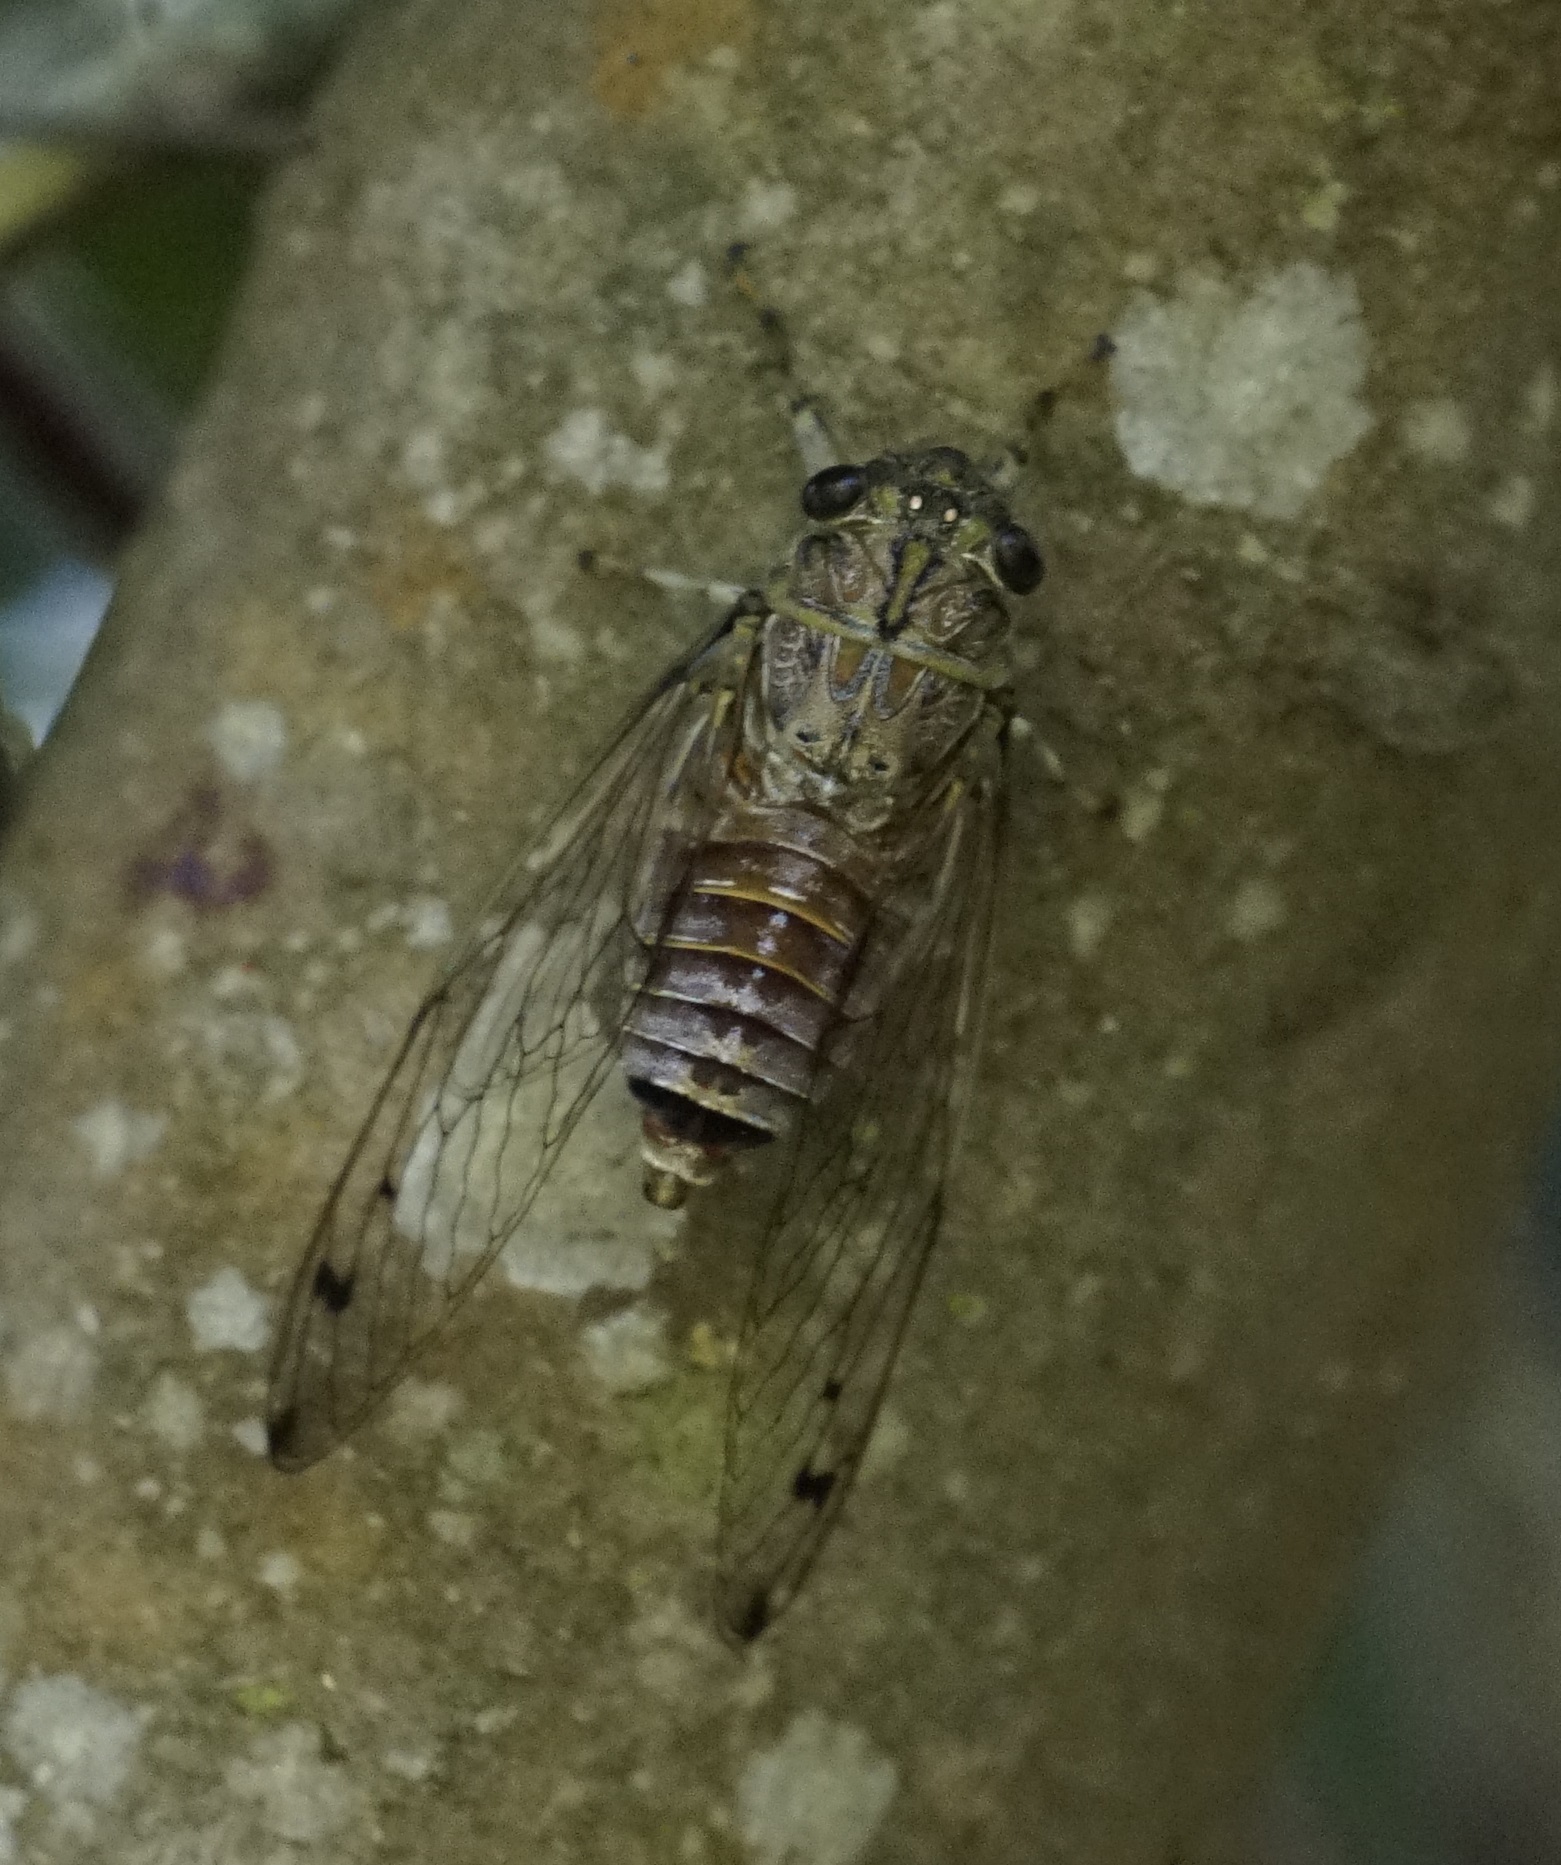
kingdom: Animalia
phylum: Arthropoda
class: Insecta
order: Hemiptera
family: Cicadidae
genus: Tamasa
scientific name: Tamasa tristigma
